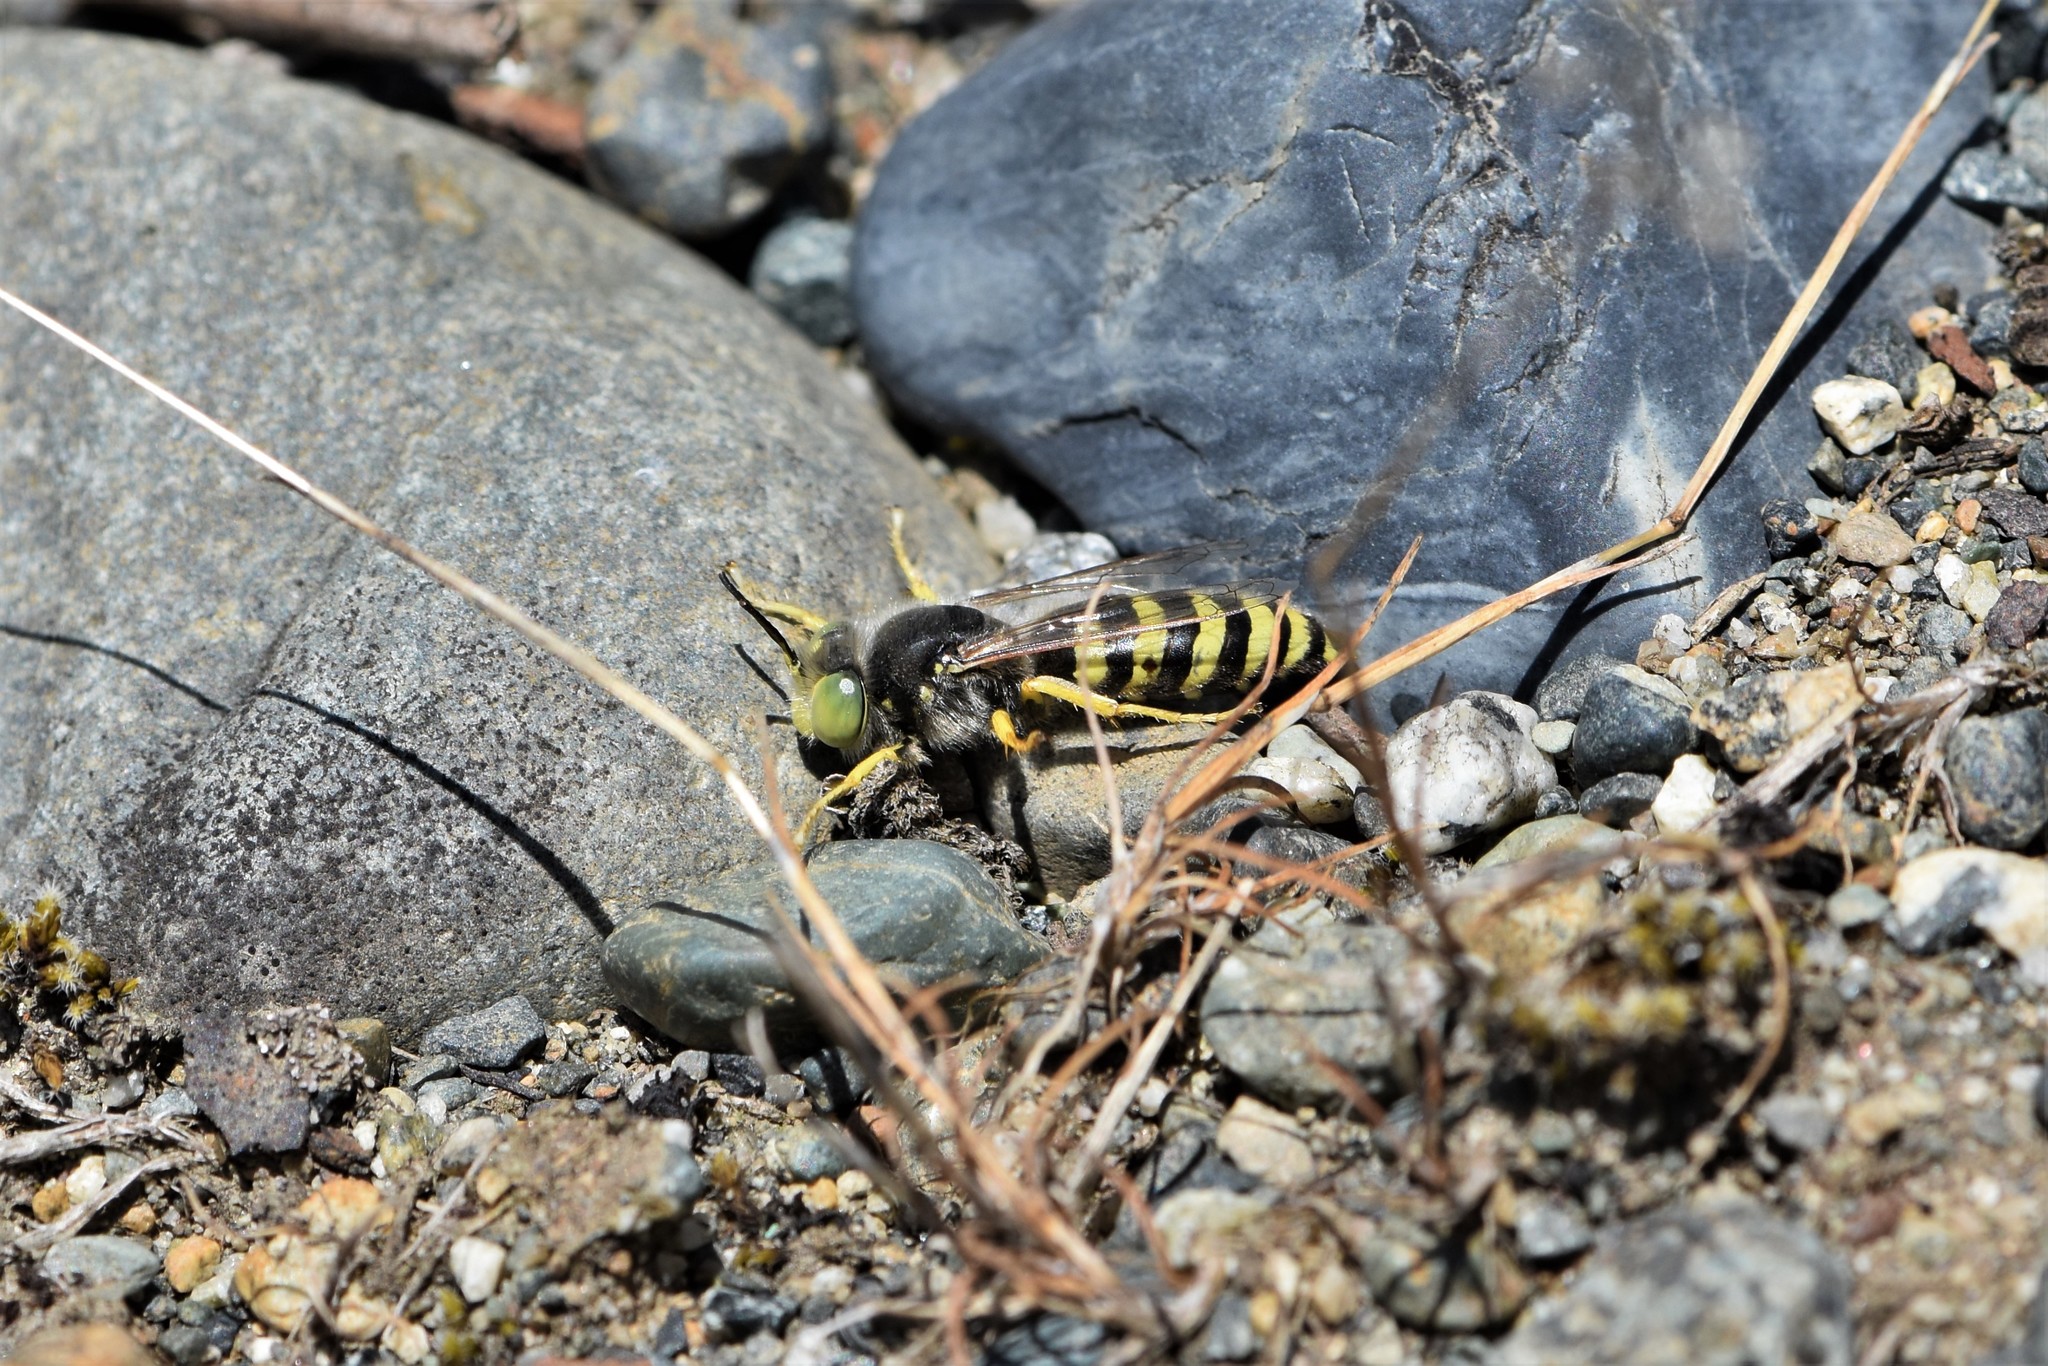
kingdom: Animalia
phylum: Arthropoda
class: Insecta
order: Hymenoptera
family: Crabronidae
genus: Bembix
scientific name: Bembix americana
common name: American sand wasp
